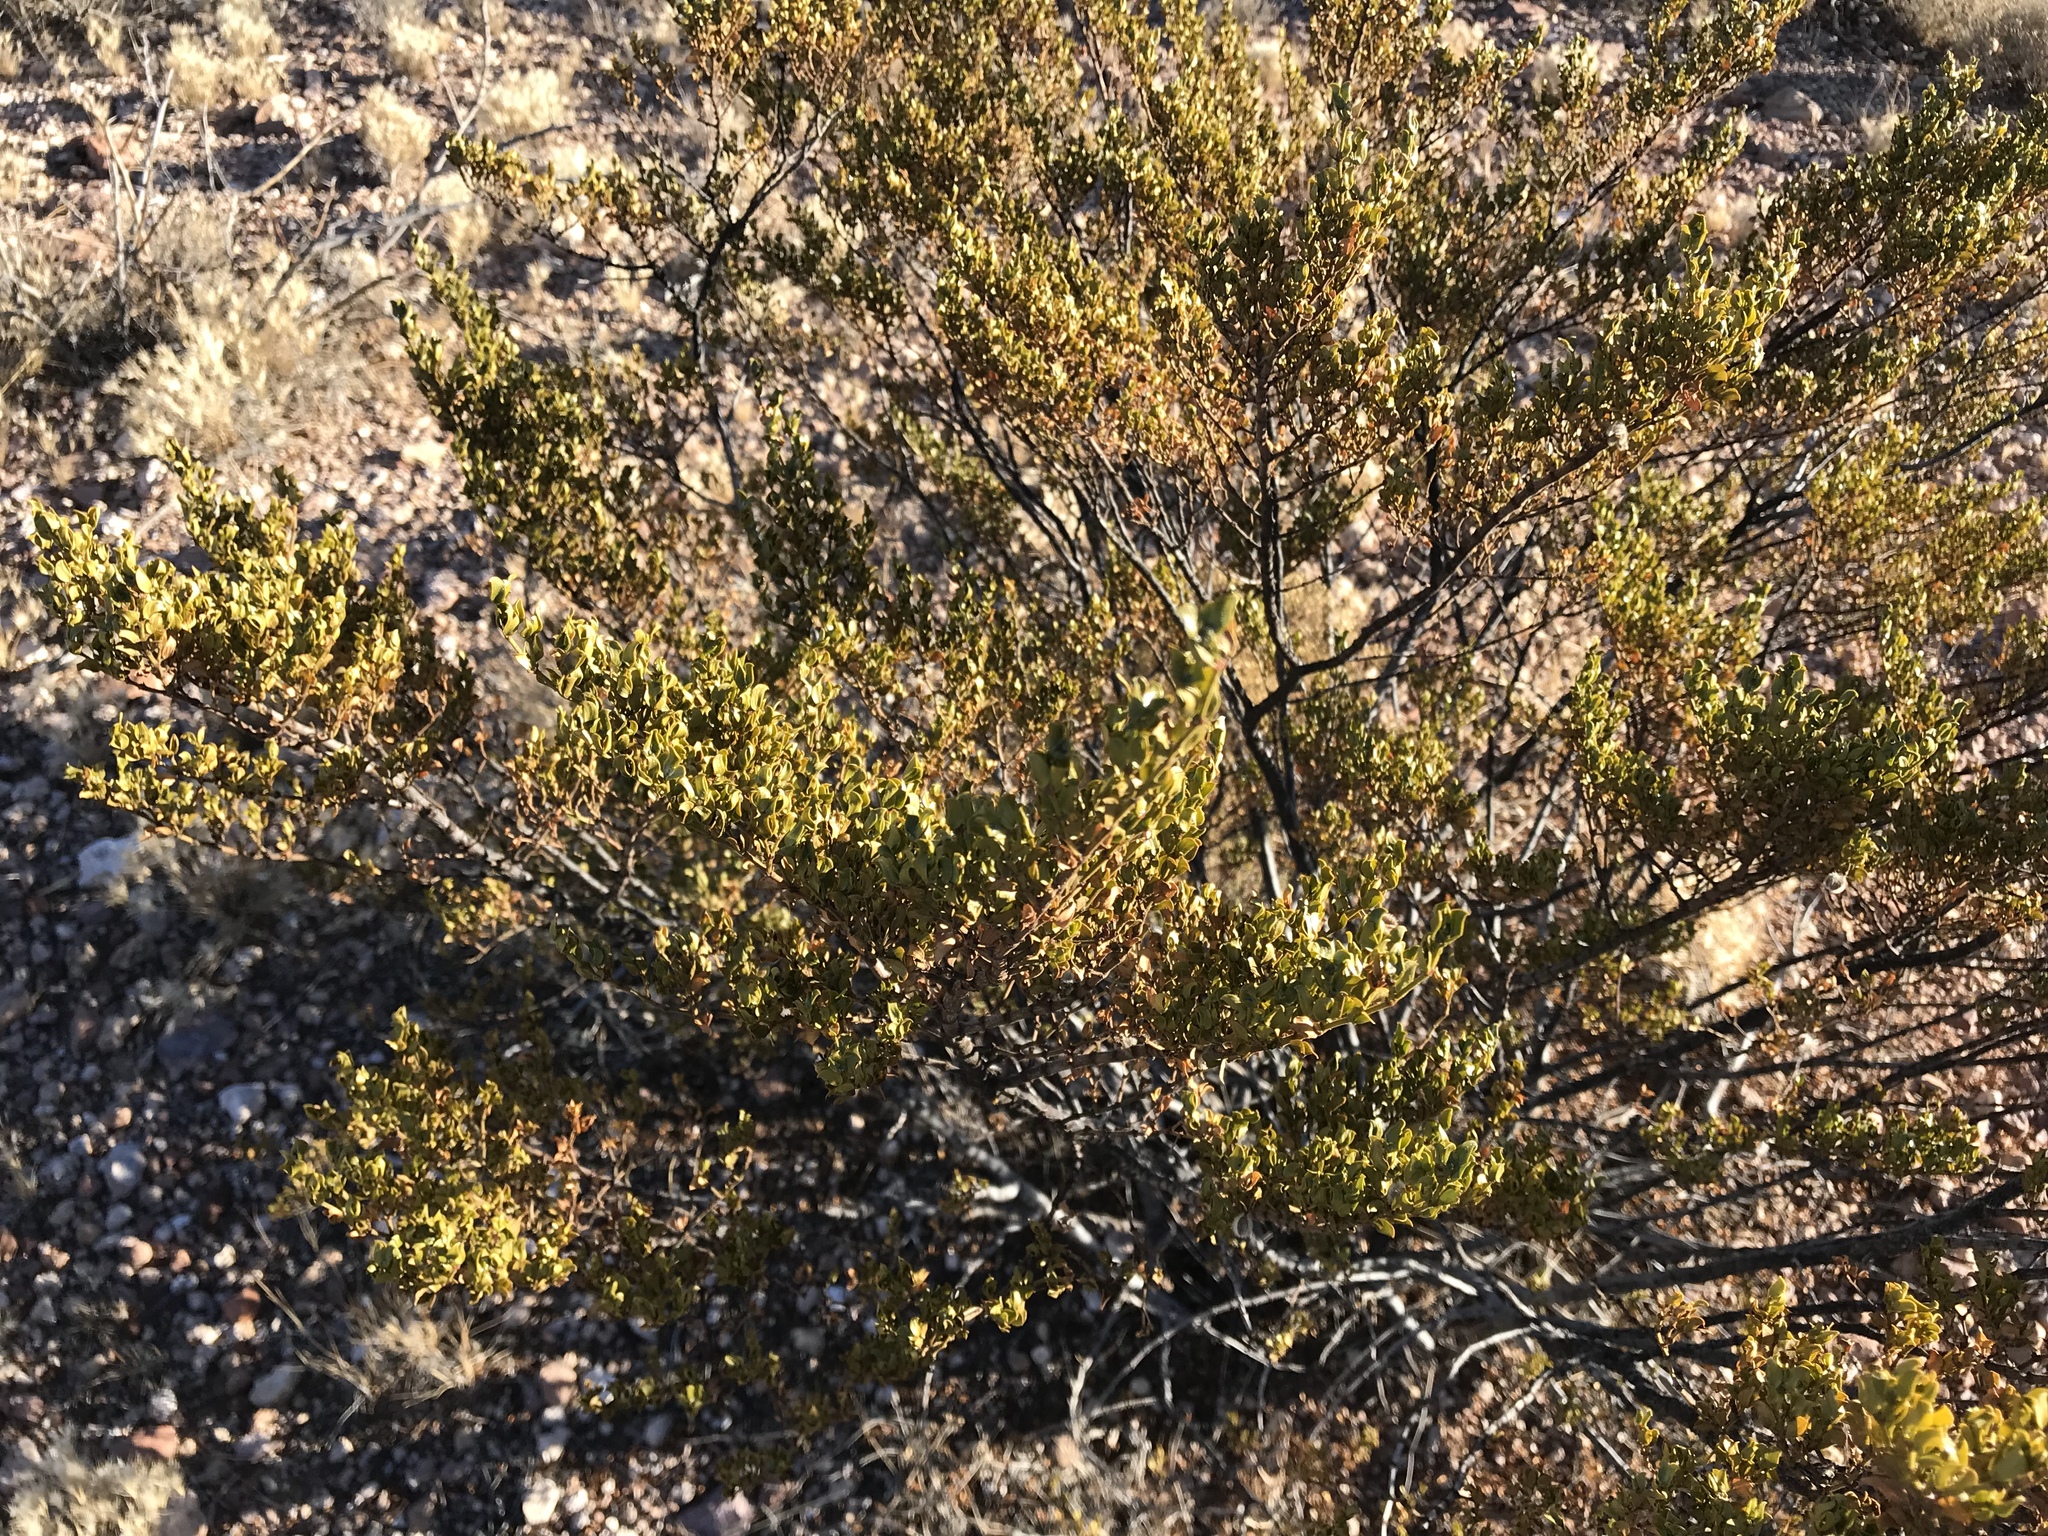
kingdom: Plantae
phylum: Tracheophyta
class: Magnoliopsida
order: Zygophyllales
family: Zygophyllaceae
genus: Larrea
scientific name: Larrea tridentata
